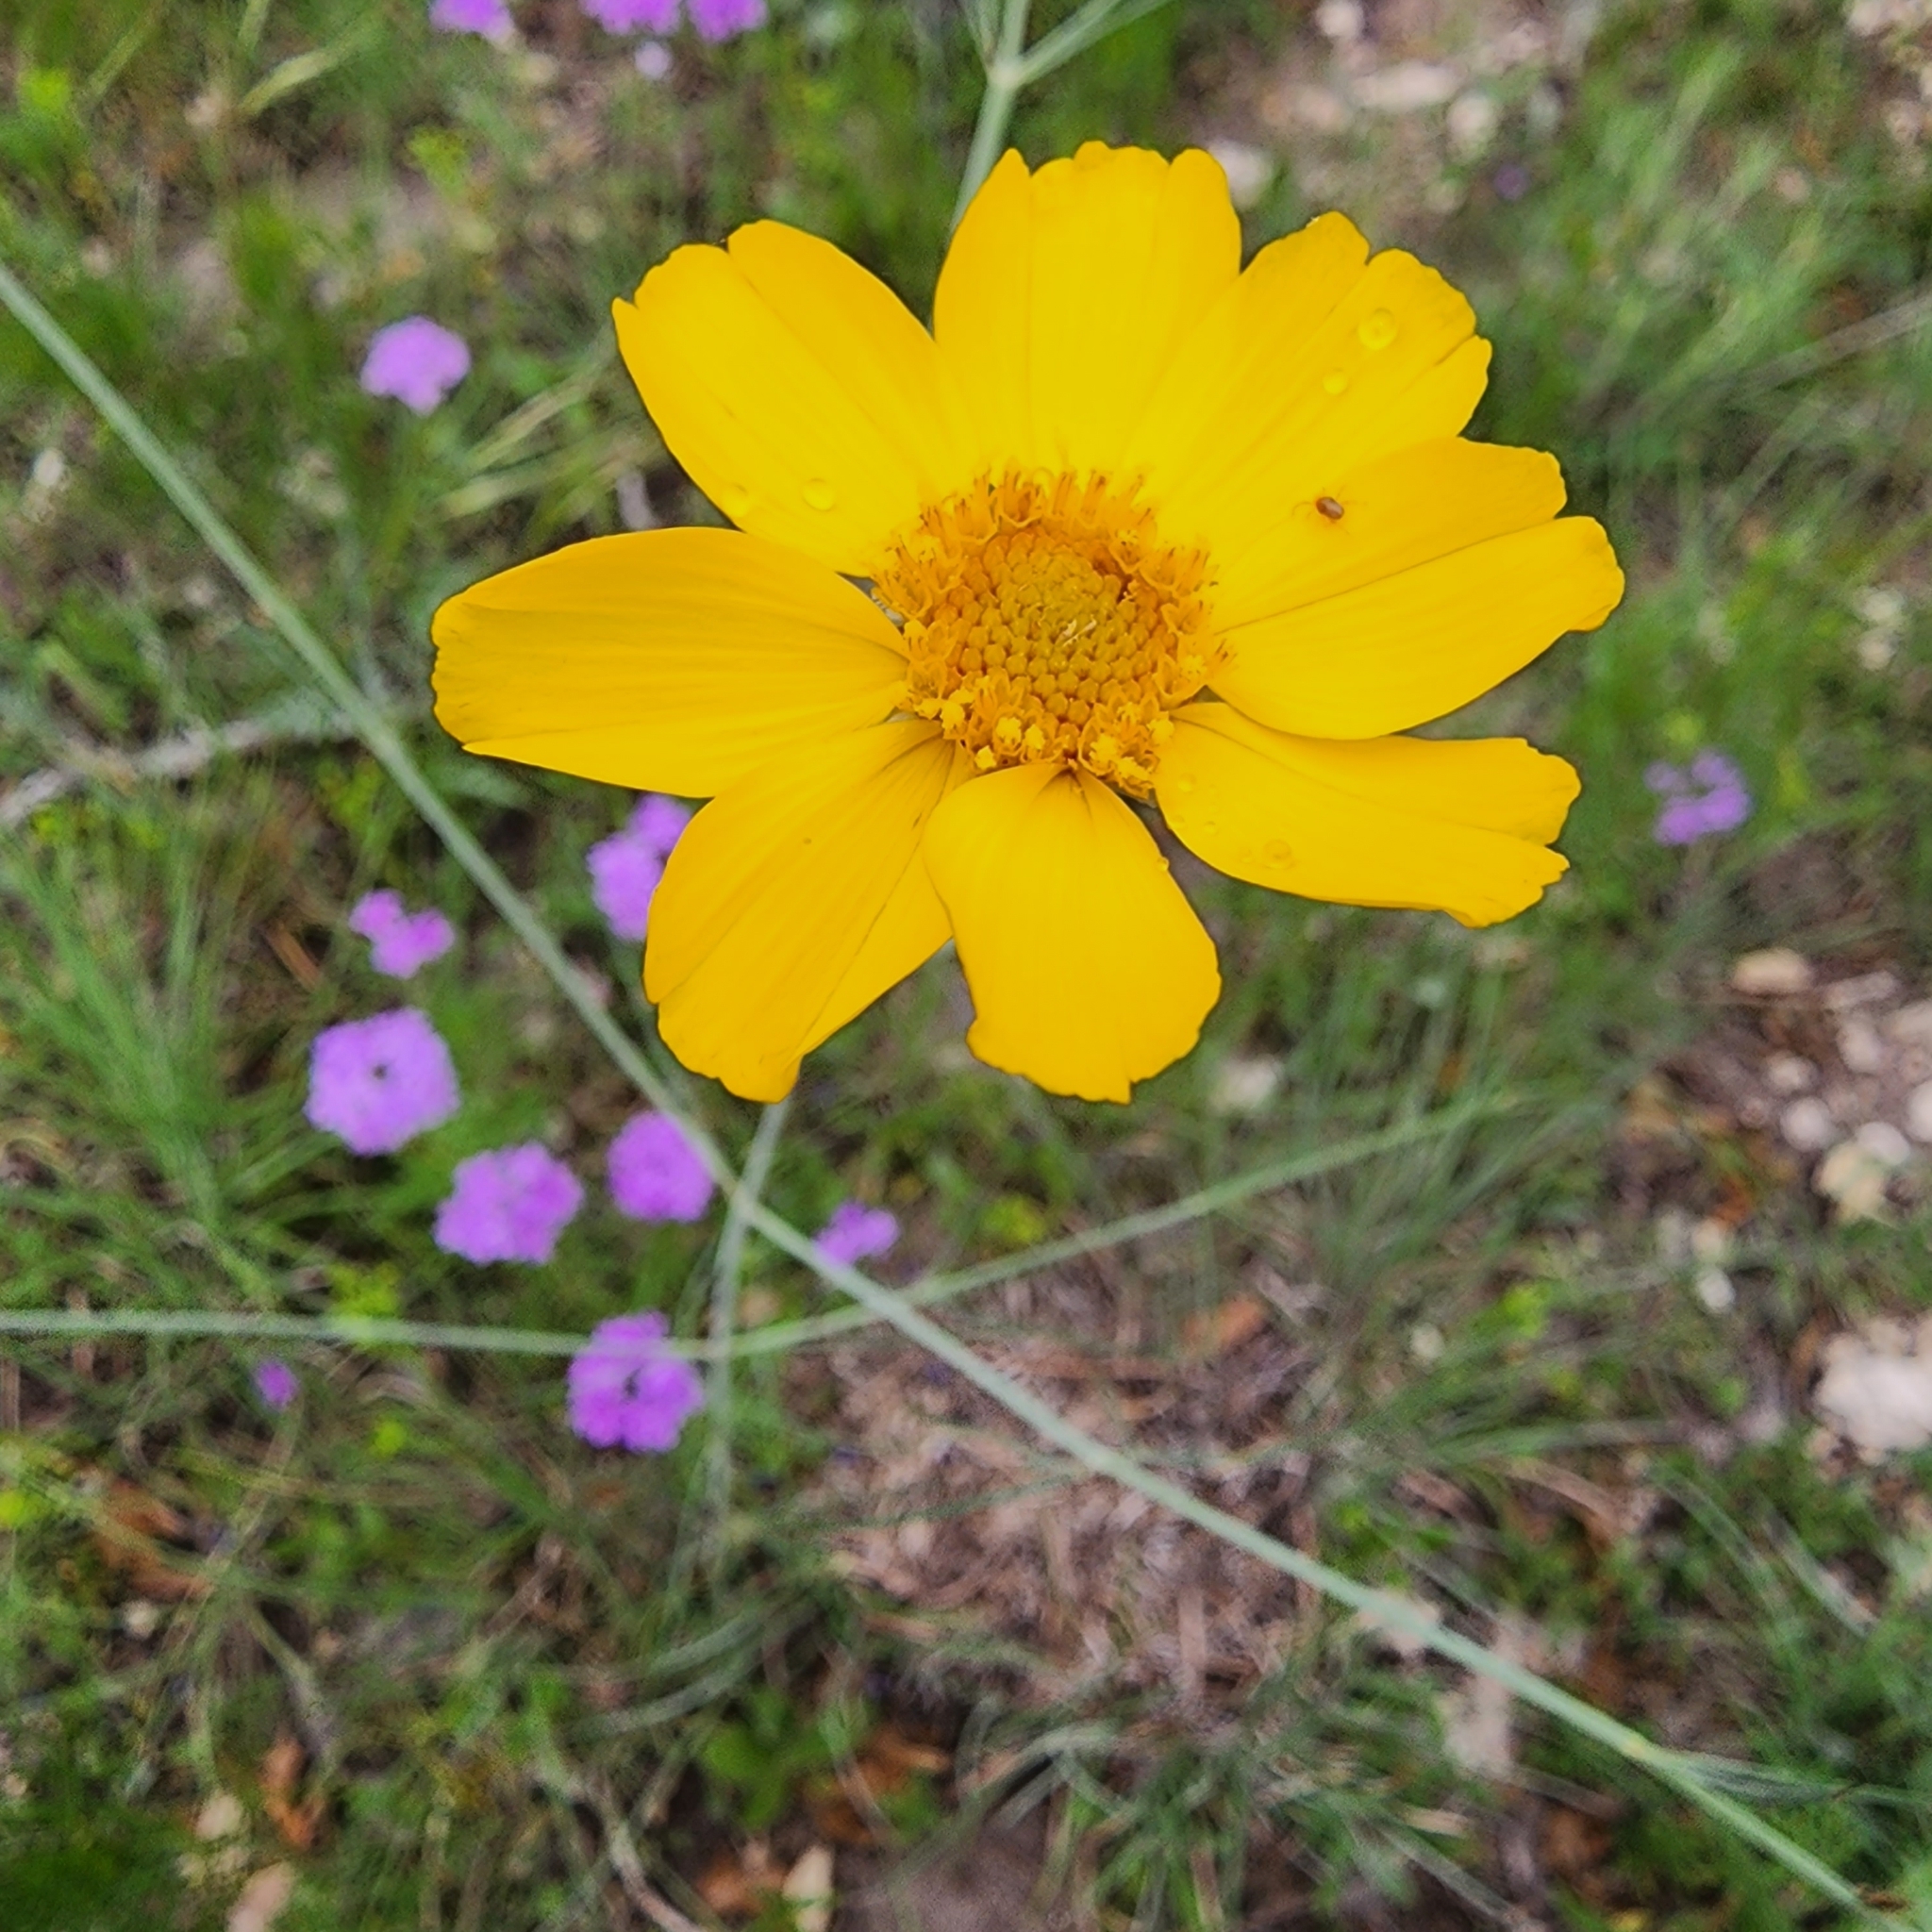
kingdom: Plantae
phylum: Tracheophyta
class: Magnoliopsida
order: Asterales
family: Asteraceae
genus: Thelesperma
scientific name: Thelesperma simplicifolium
